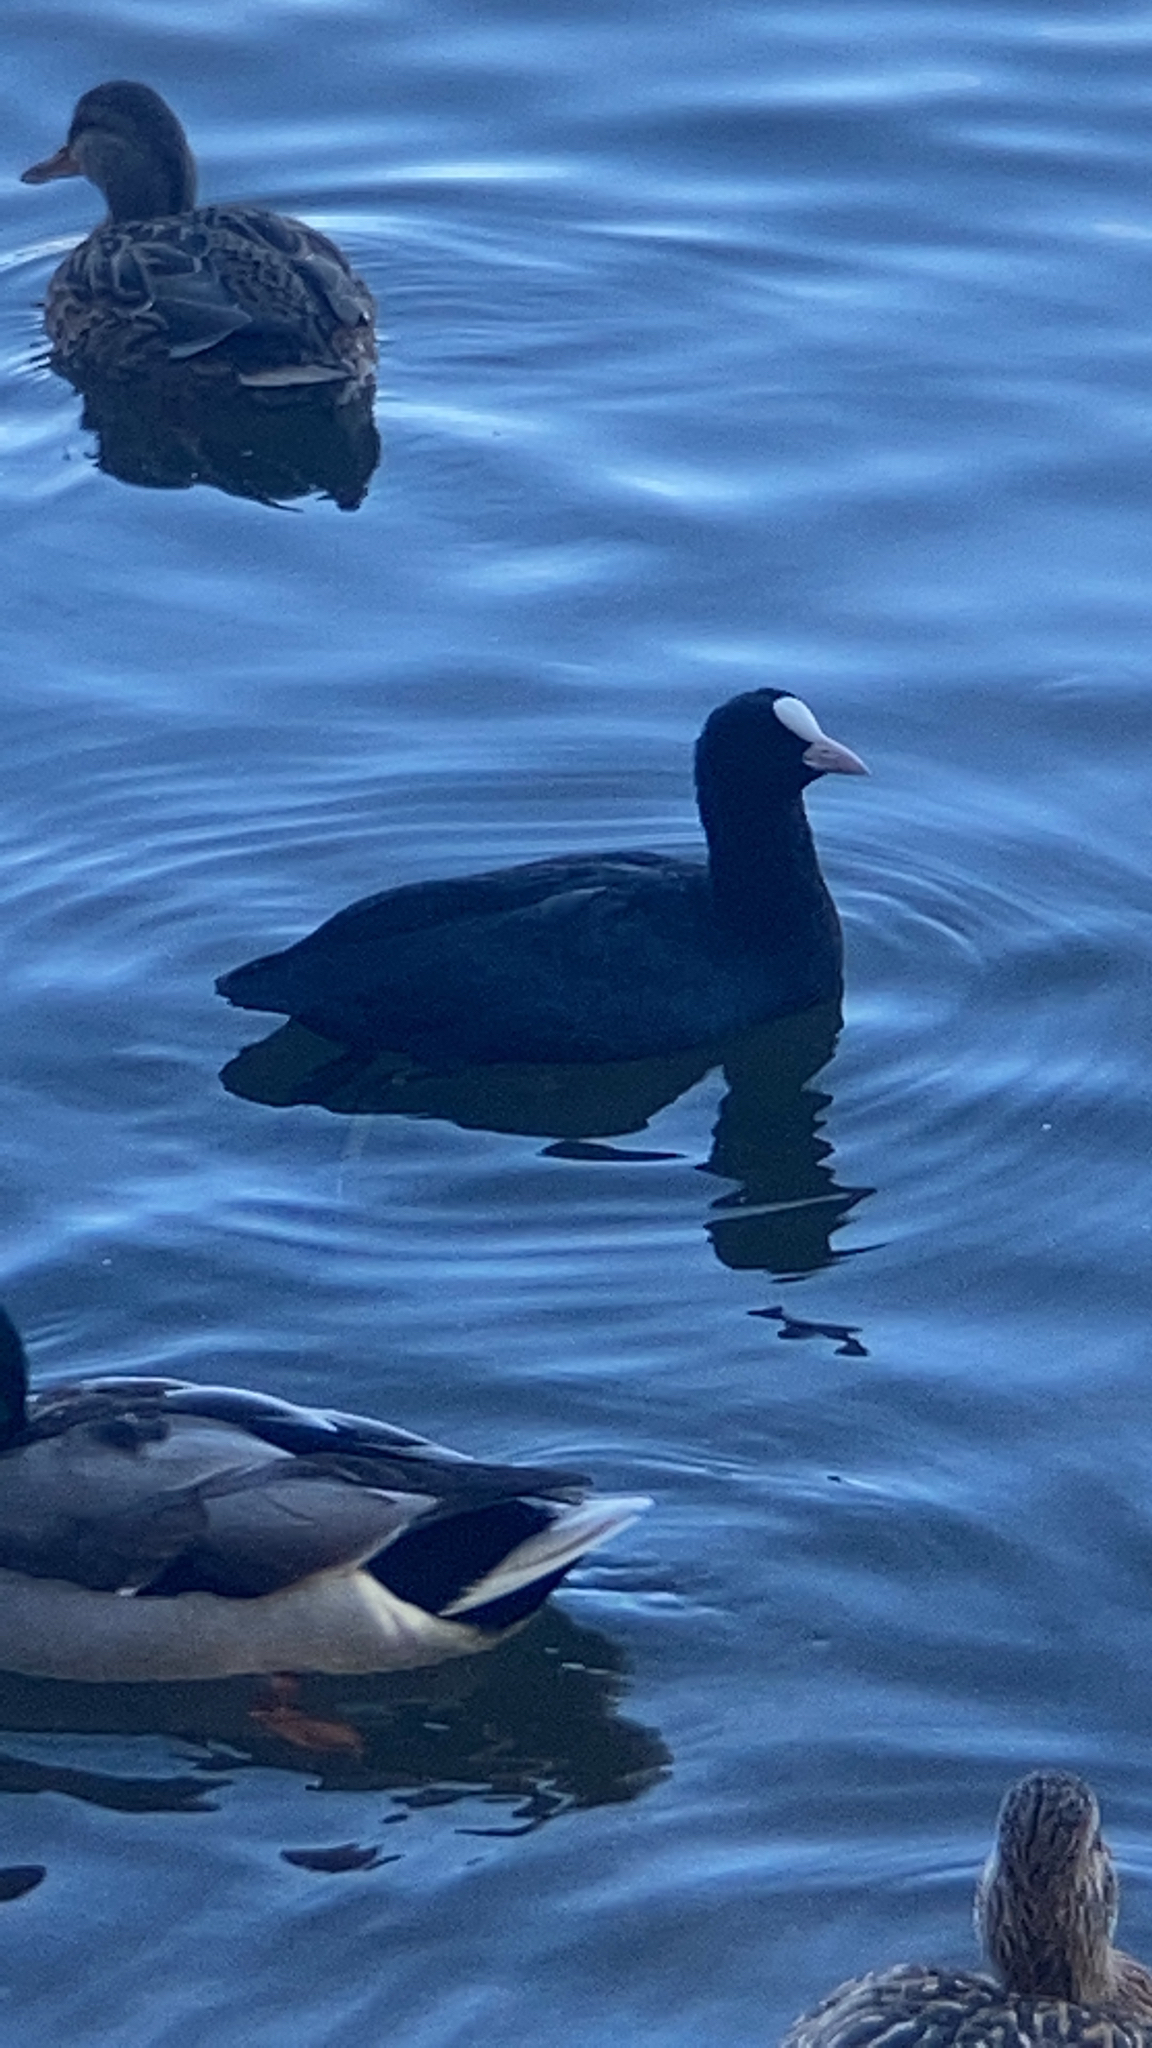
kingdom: Animalia
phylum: Chordata
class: Aves
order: Gruiformes
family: Rallidae
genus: Fulica
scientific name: Fulica atra
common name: Eurasian coot
